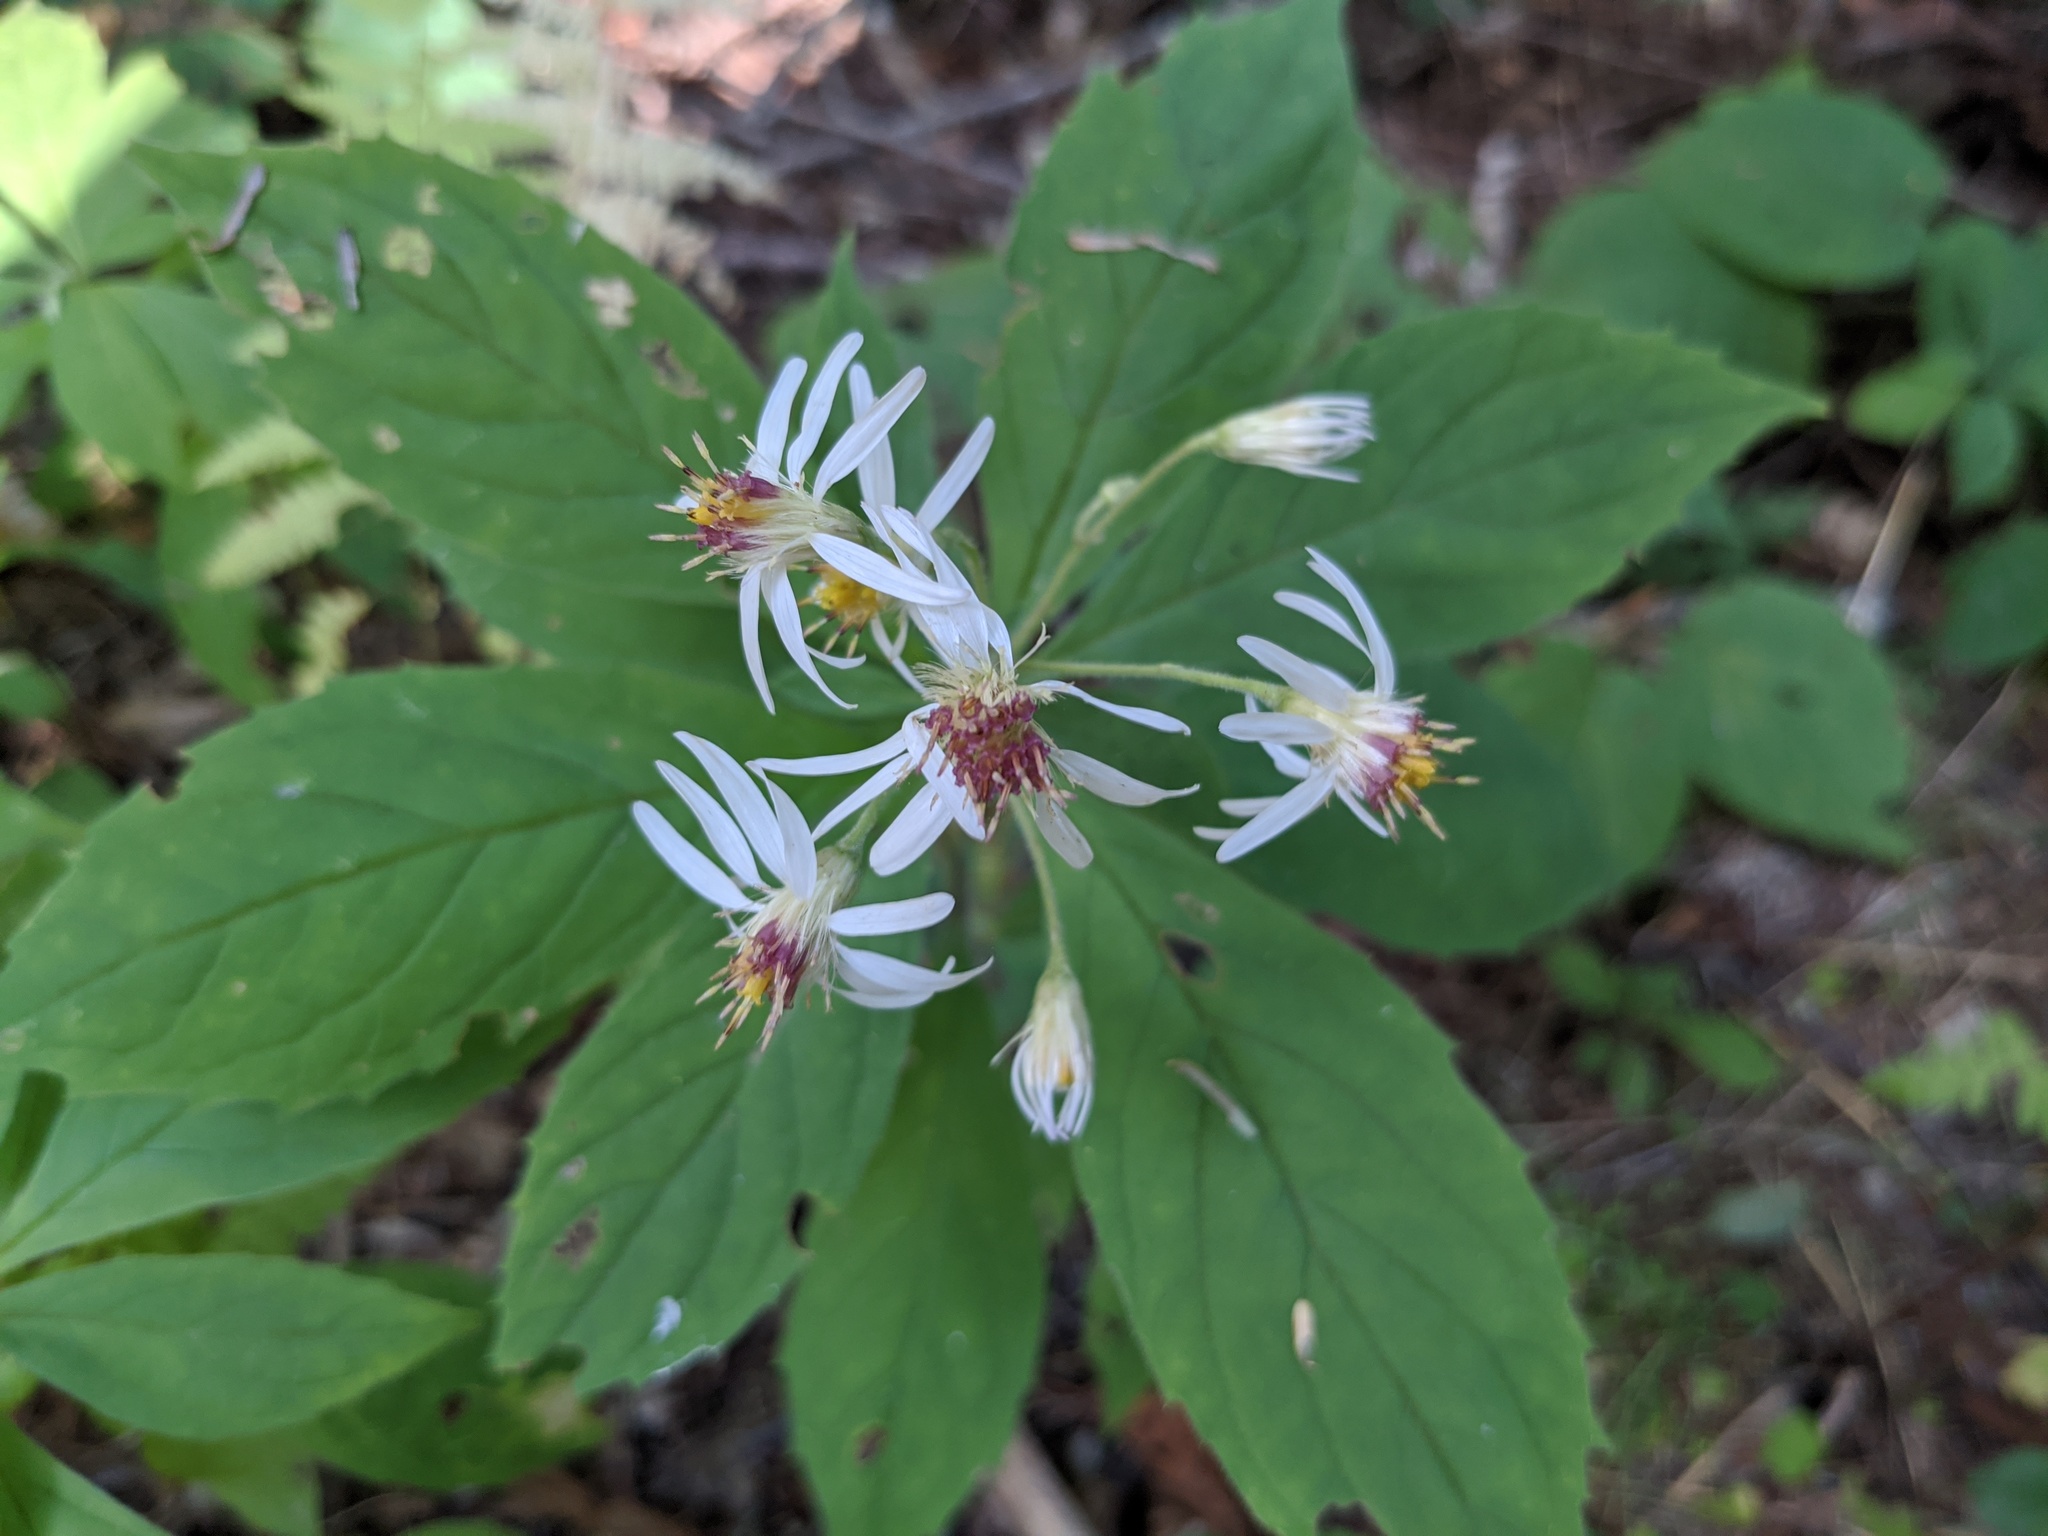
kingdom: Plantae
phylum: Tracheophyta
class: Magnoliopsida
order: Asterales
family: Asteraceae
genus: Oclemena
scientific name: Oclemena acuminata
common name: Mountain aster
